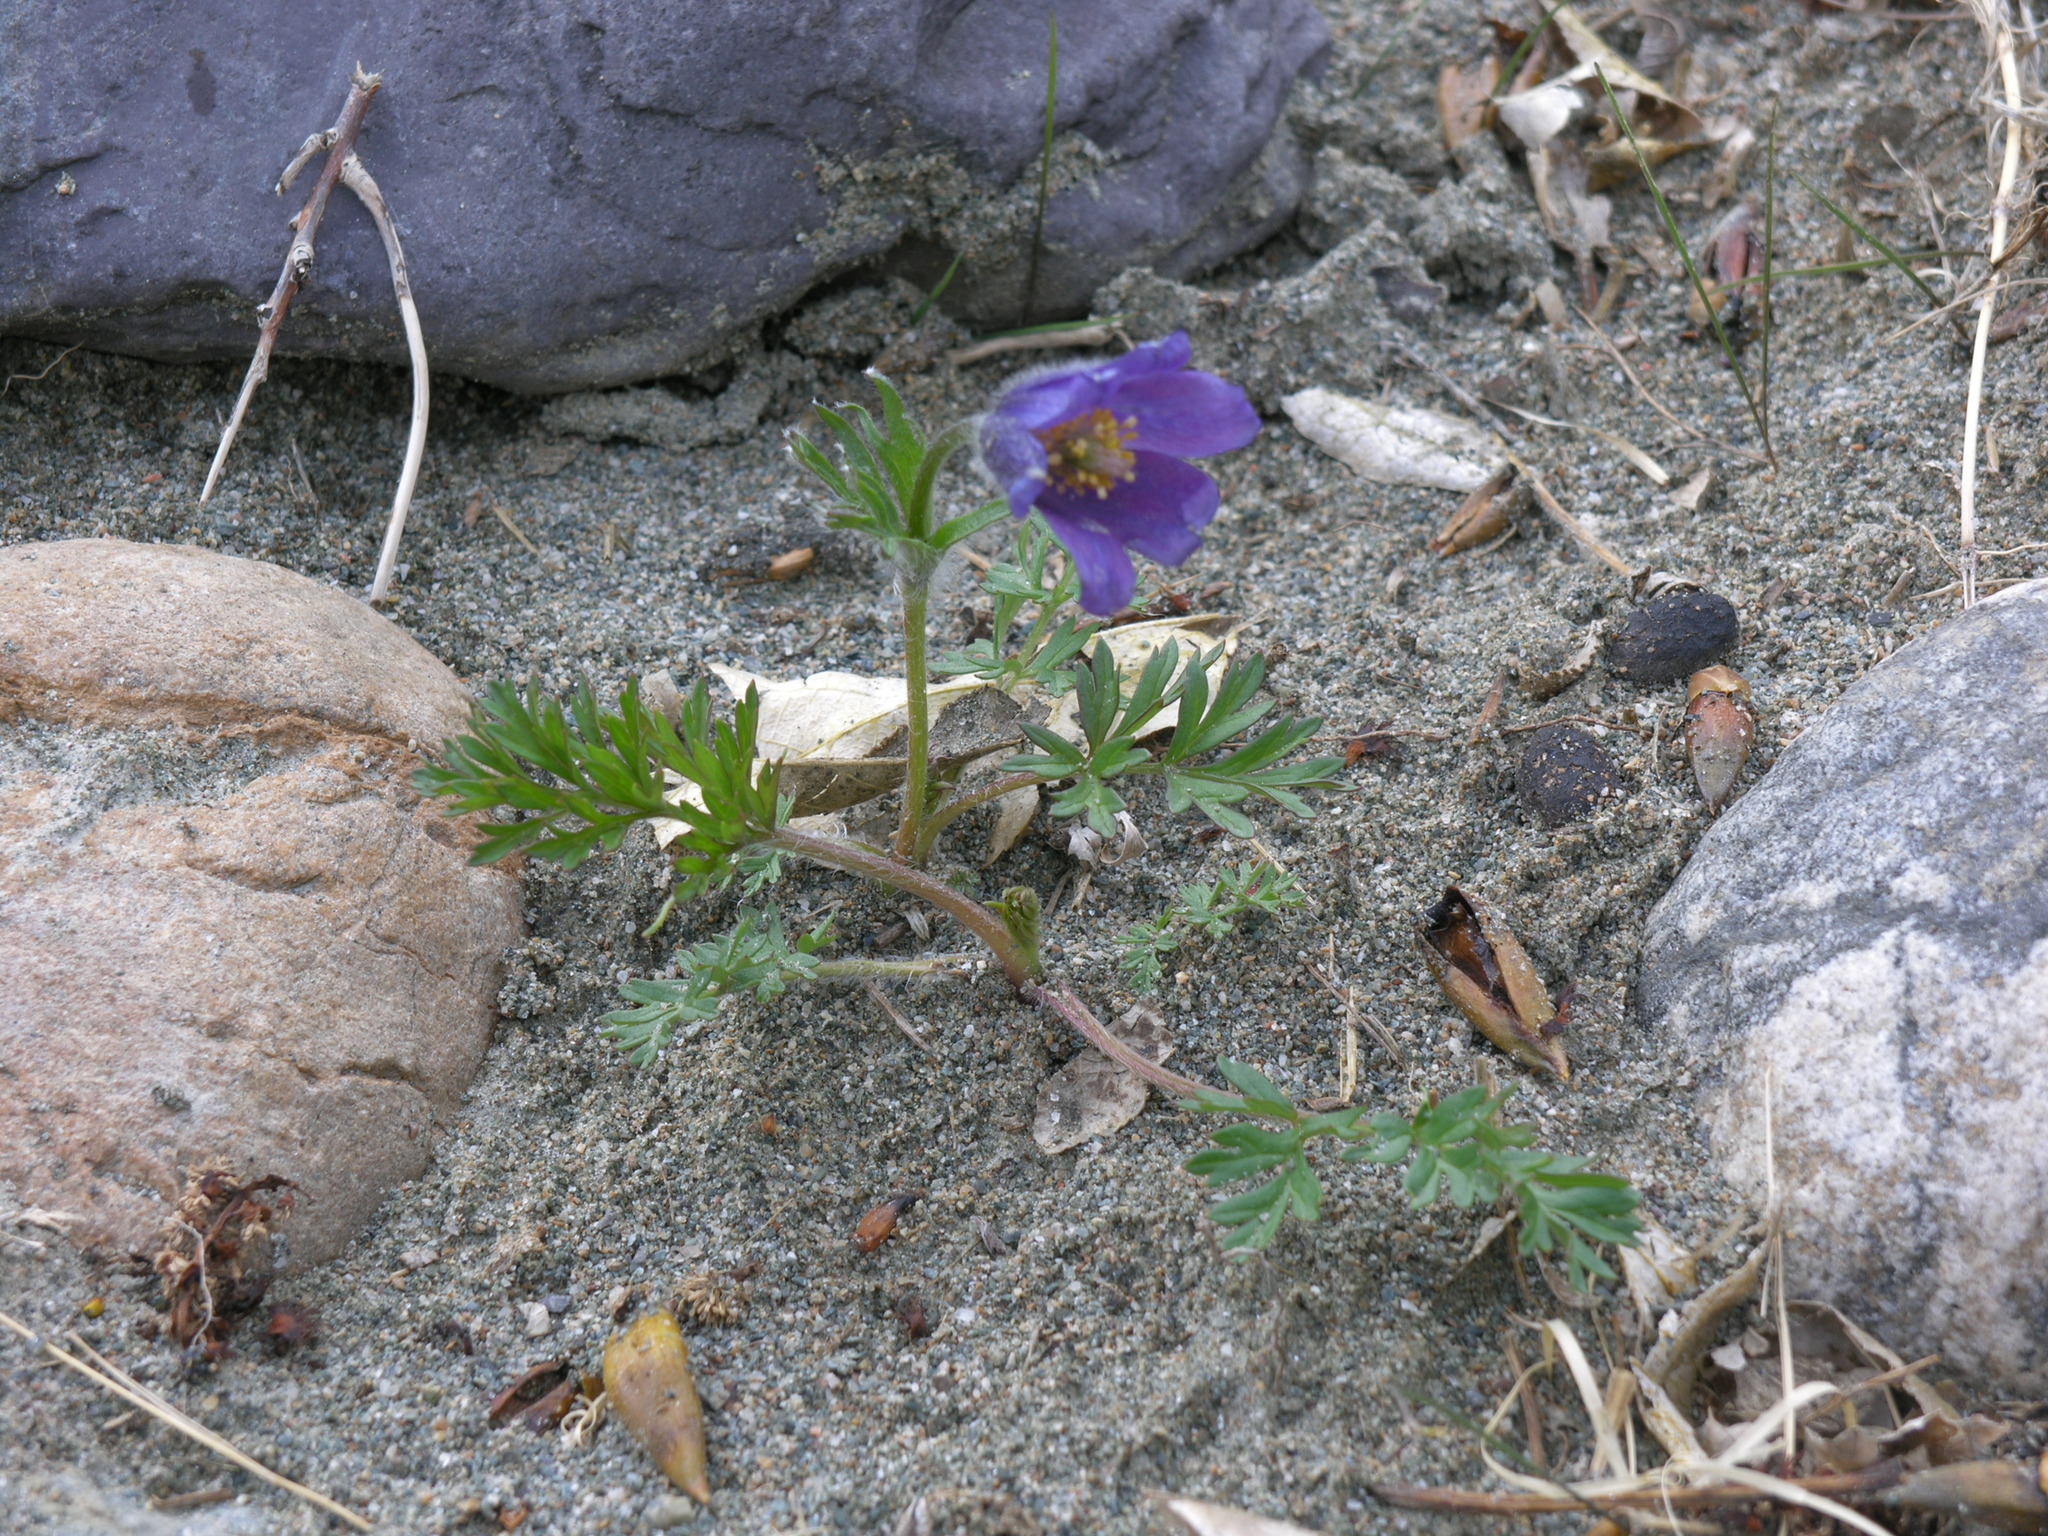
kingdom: Plantae
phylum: Tracheophyta
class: Magnoliopsida
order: Ranunculales
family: Ranunculaceae
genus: Pulsatilla
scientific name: Pulsatilla turczaninovii
